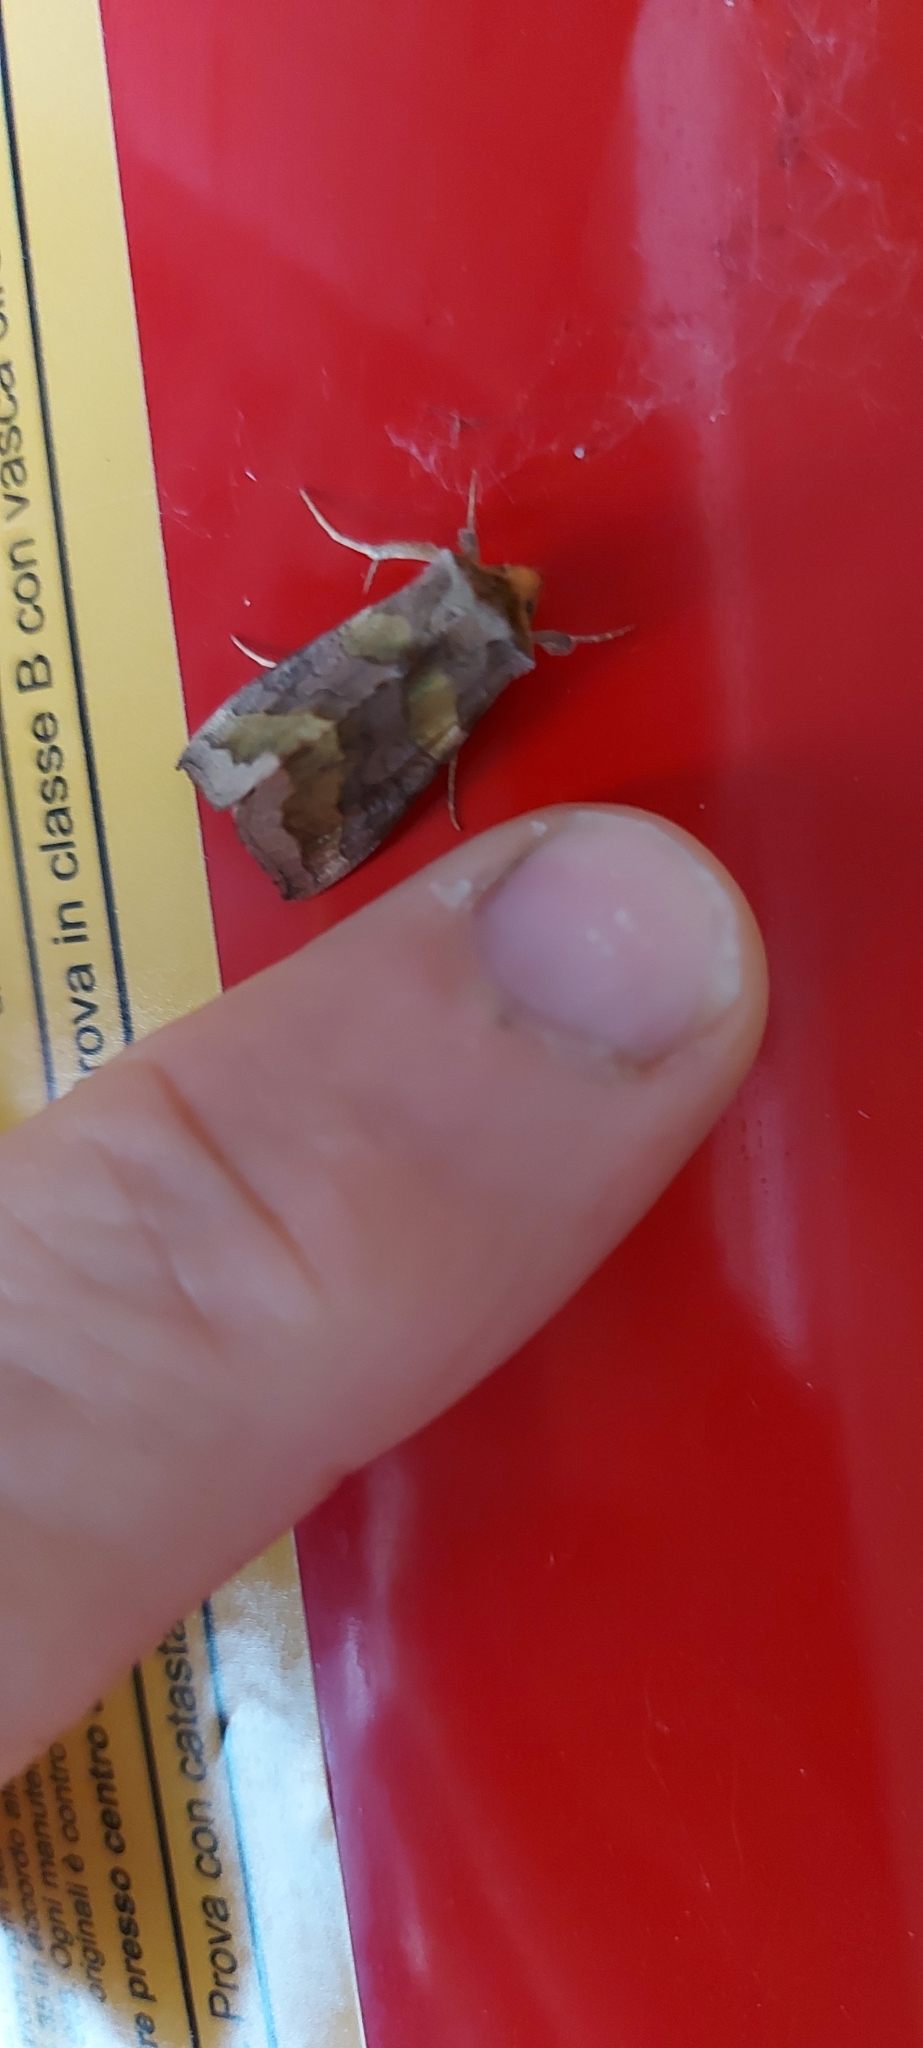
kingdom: Animalia
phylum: Arthropoda
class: Insecta
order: Lepidoptera
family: Noctuidae
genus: Diachrysia
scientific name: Diachrysia chrysitis
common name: Burnished brass
